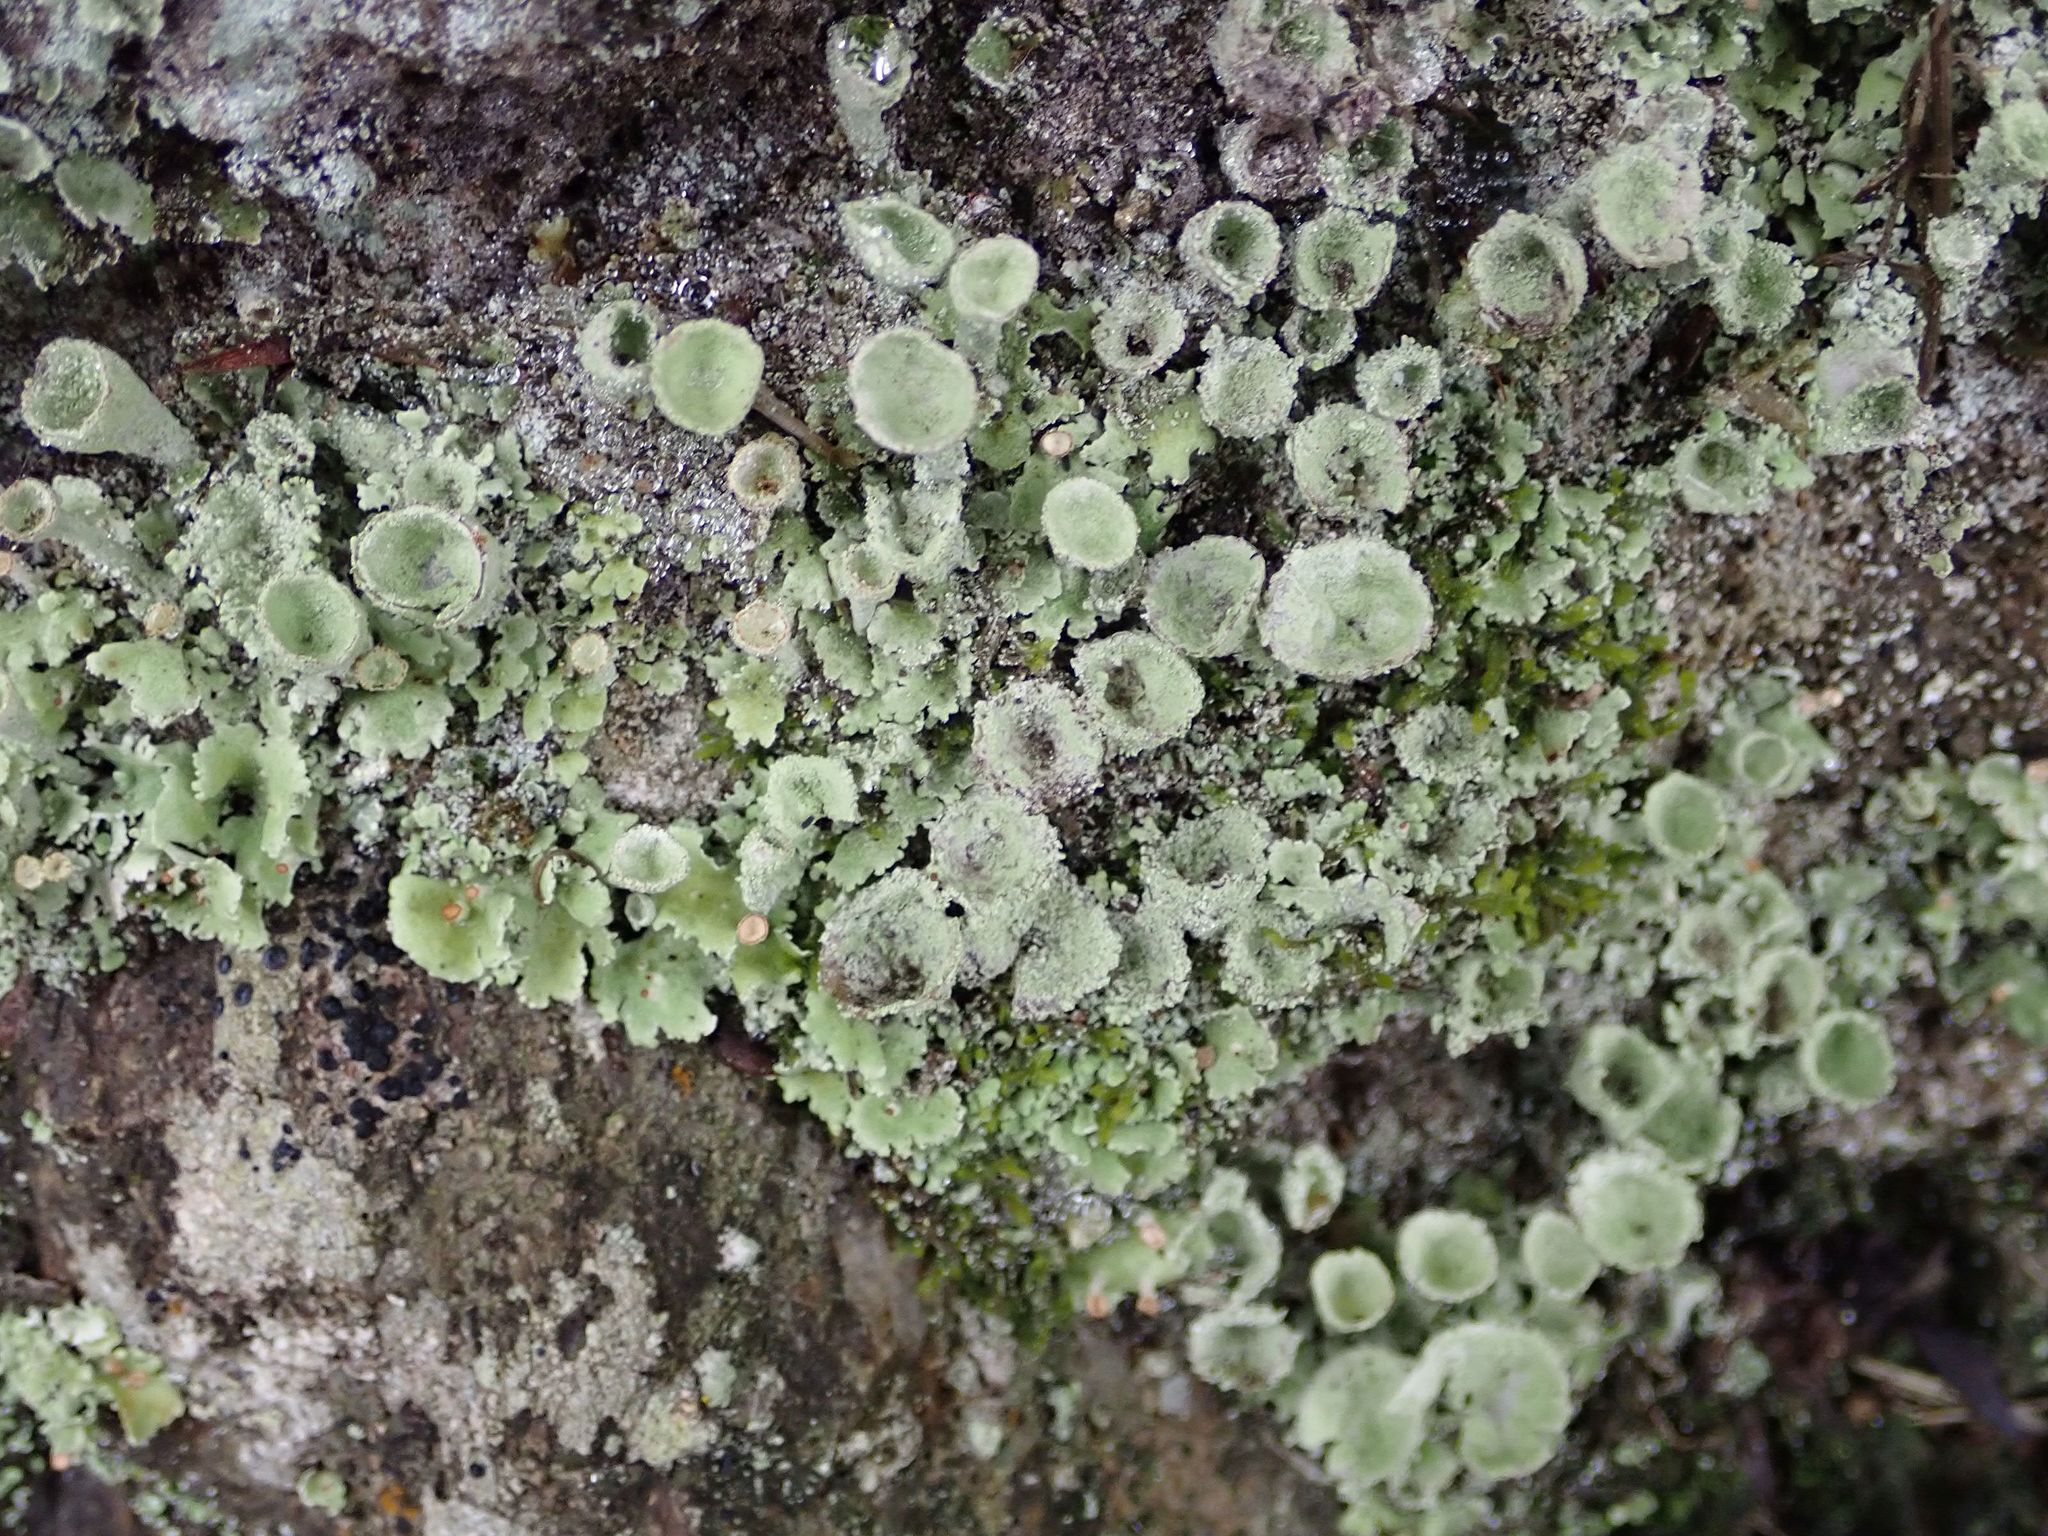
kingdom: Fungi
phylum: Ascomycota
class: Lecanoromycetes
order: Lecanorales
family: Cladoniaceae
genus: Cladonia
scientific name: Cladonia chlorophaea
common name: Mealy pixie cup
